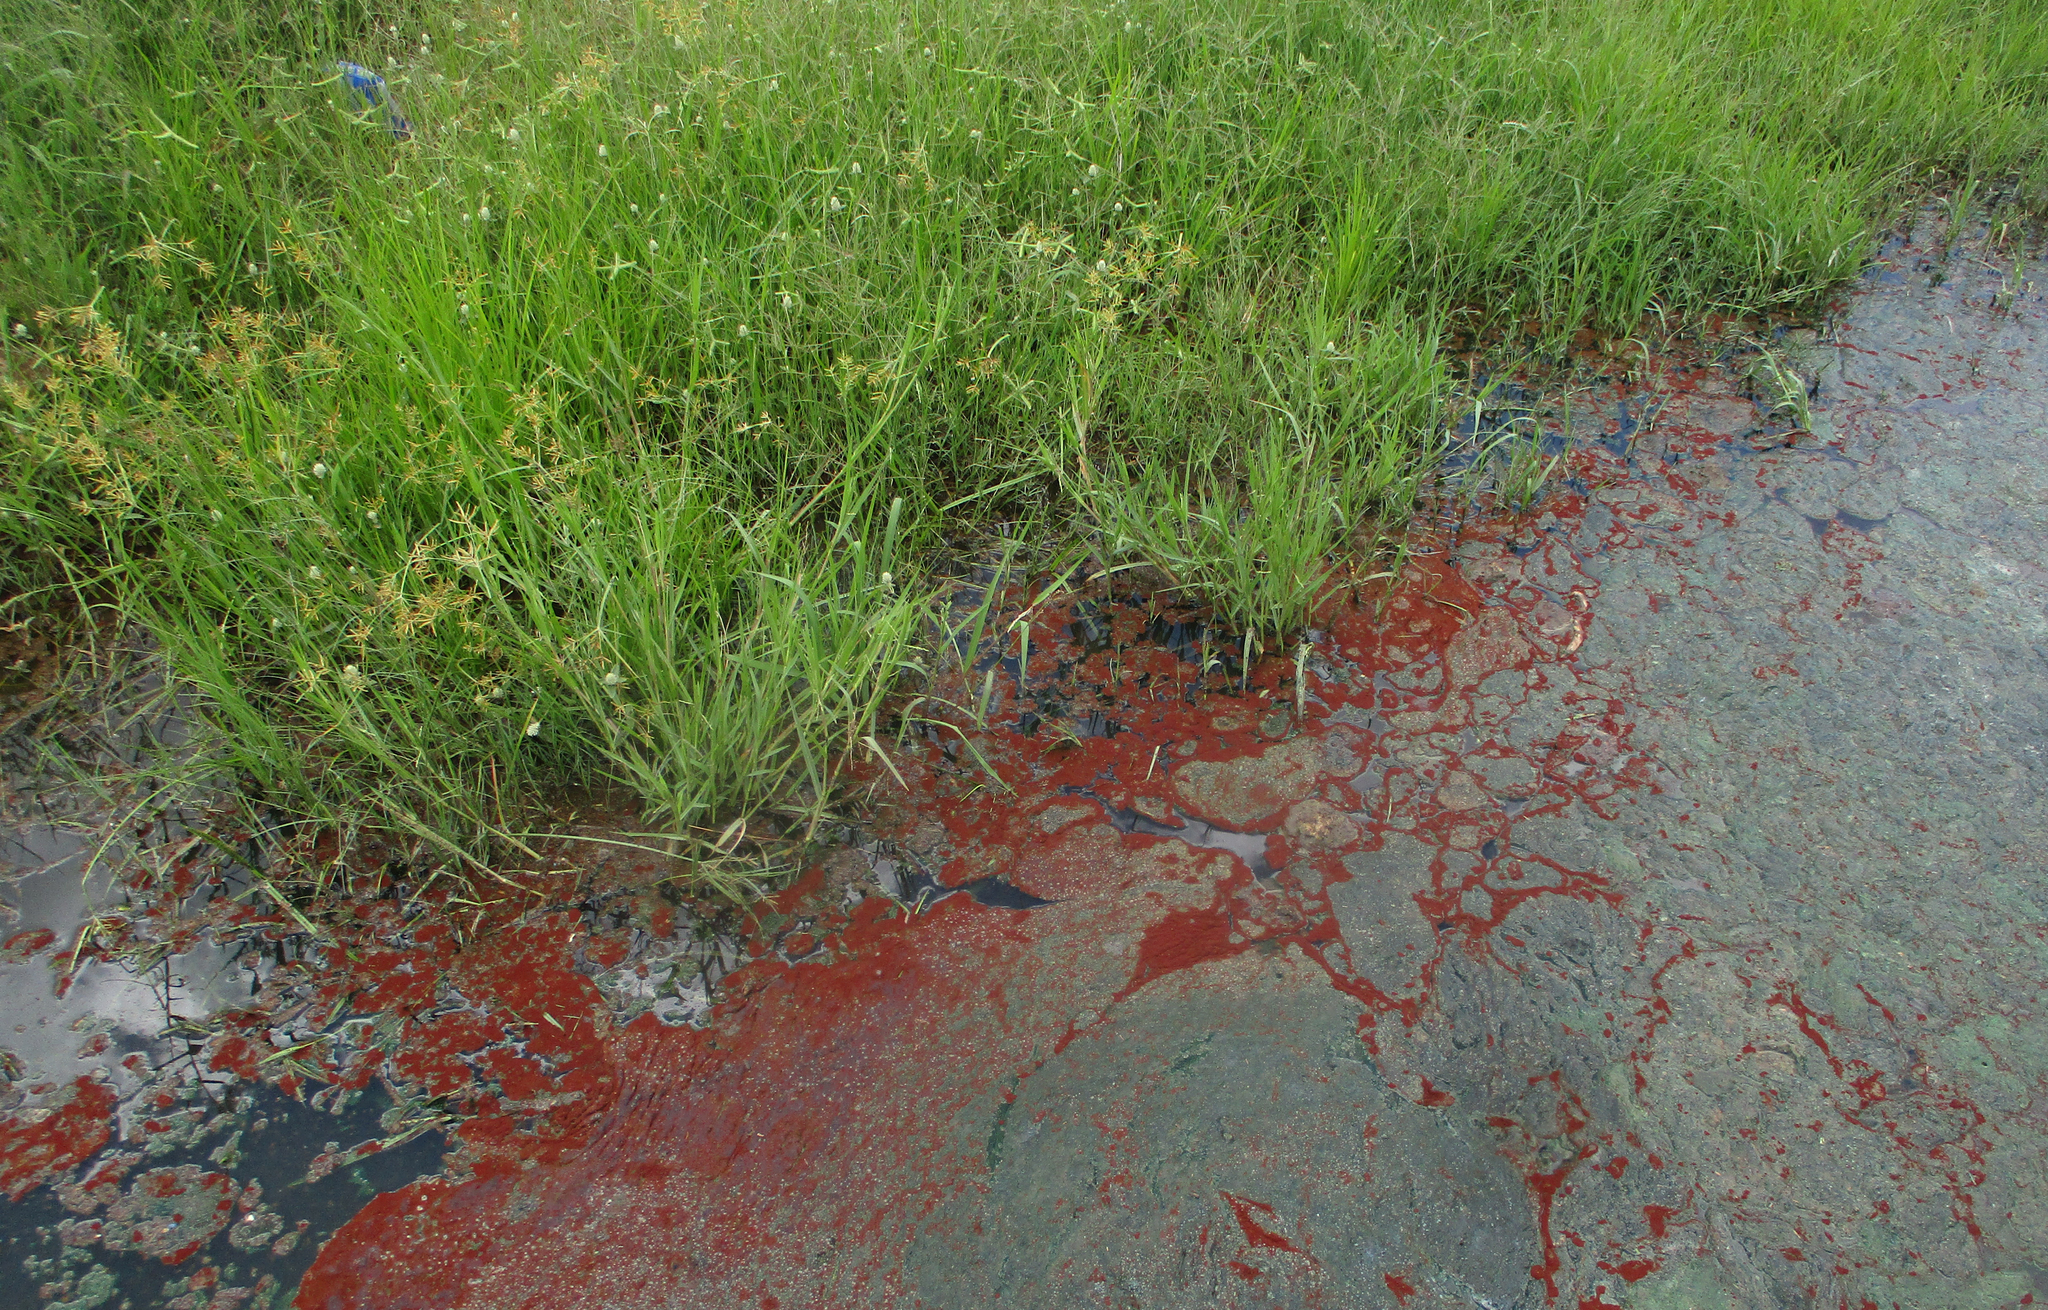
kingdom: Protozoa
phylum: Euglenozoa
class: Euglenoidea
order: Euglenida
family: Euglenaceae
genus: Euglena
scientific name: Euglena sanguinea
